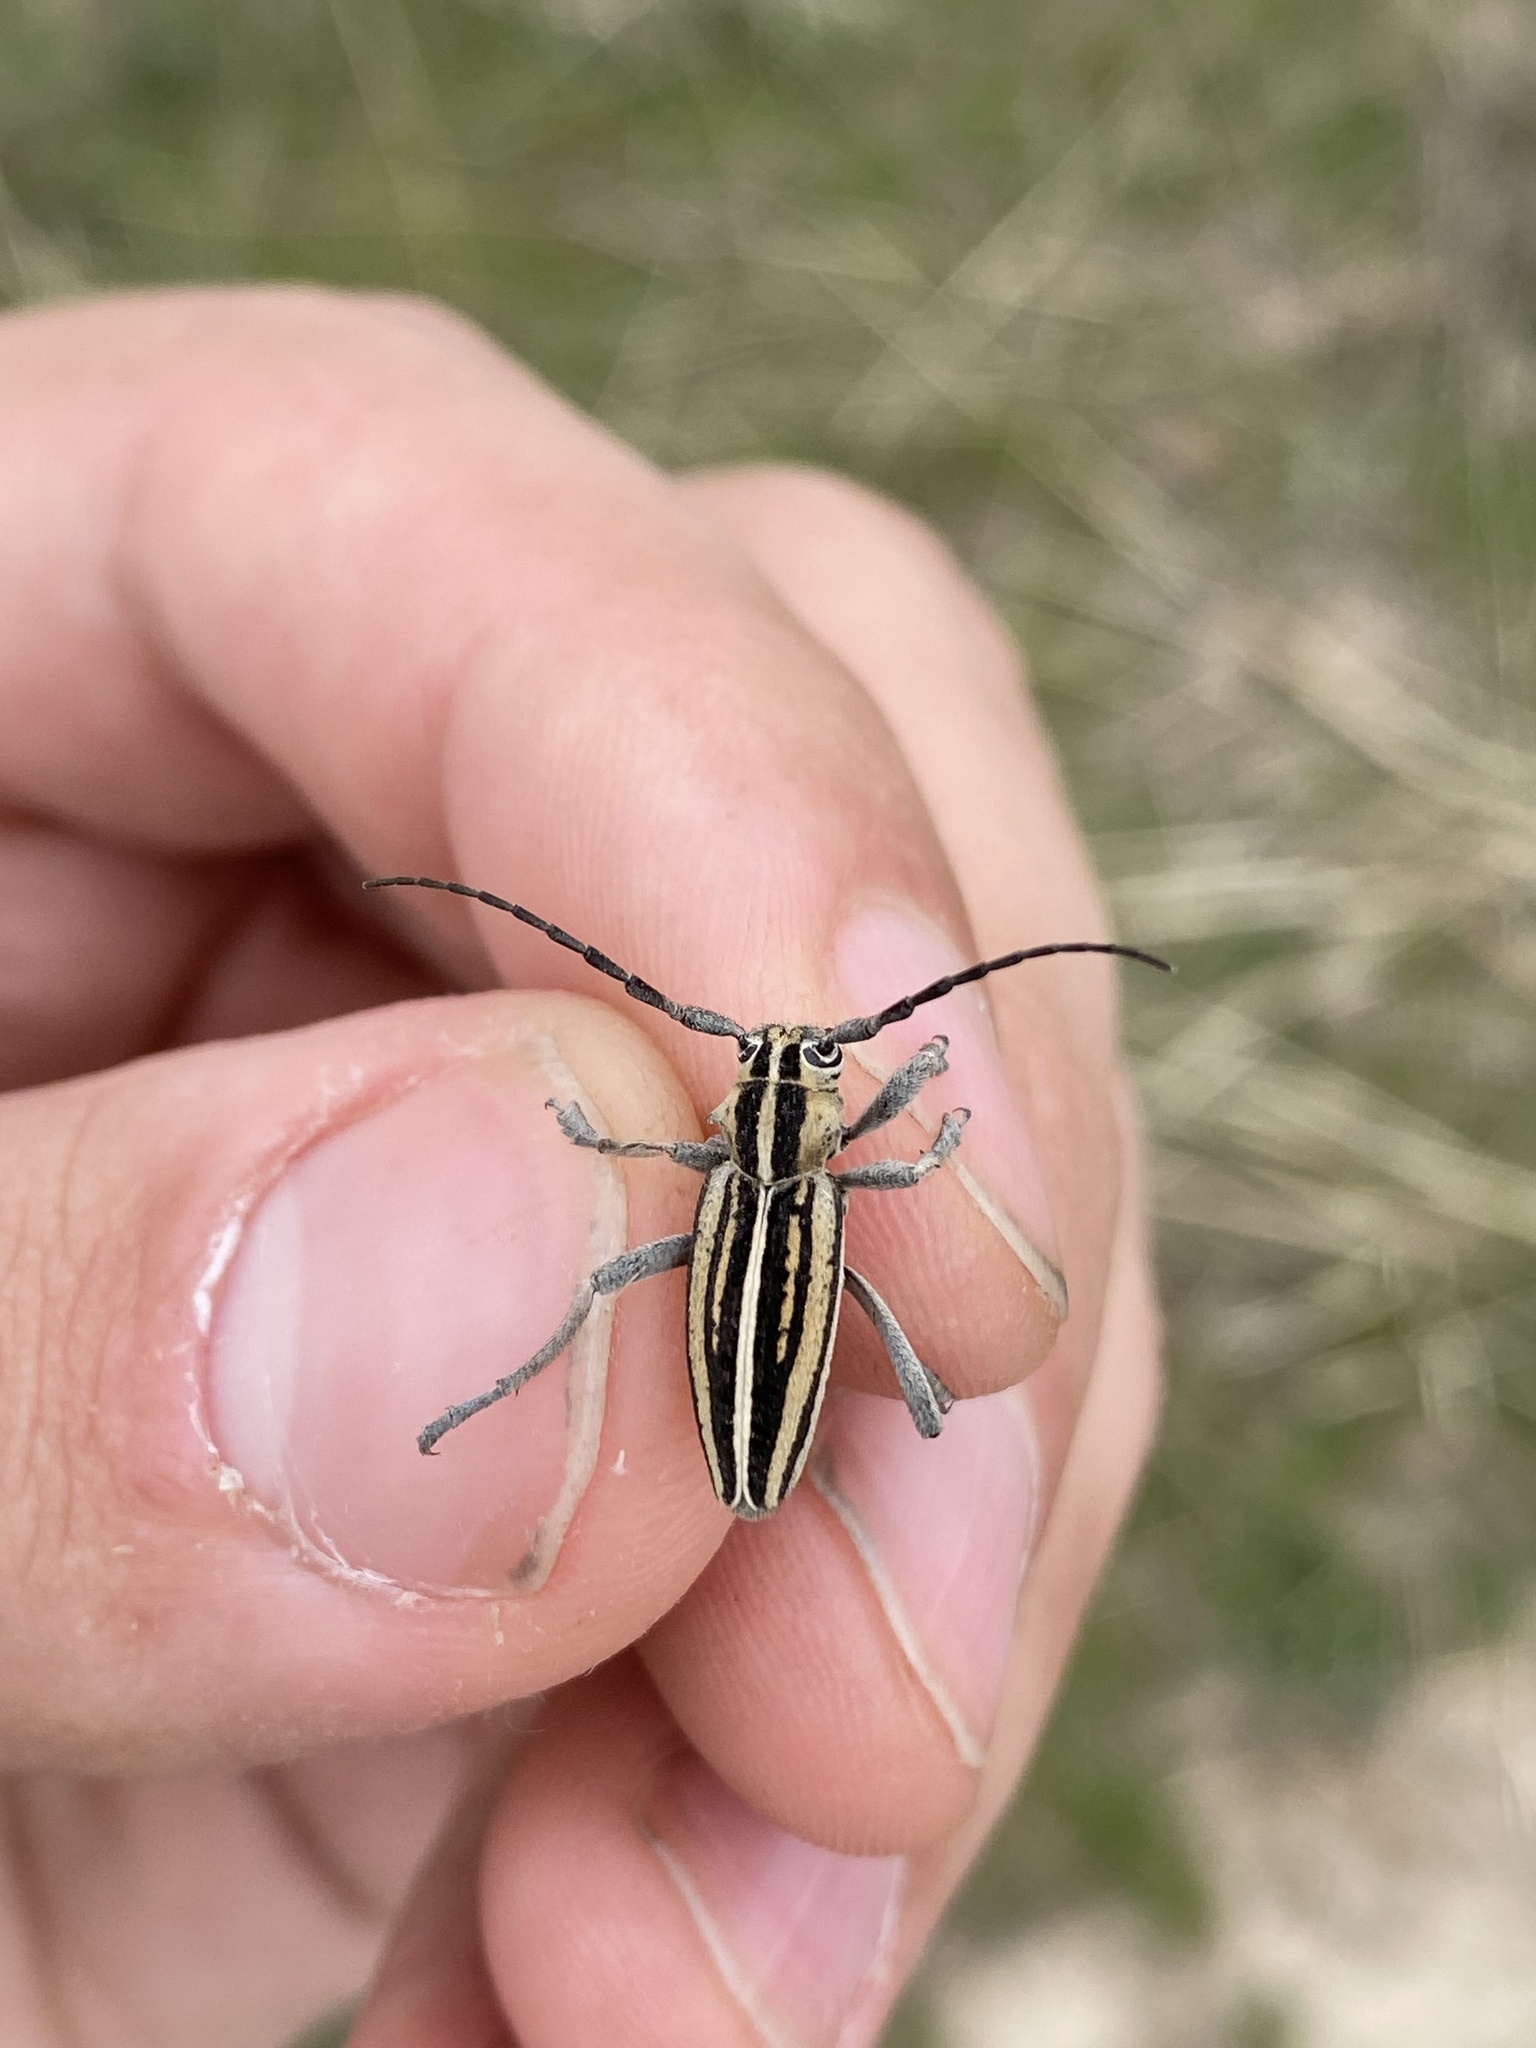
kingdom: Animalia
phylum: Arthropoda
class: Insecta
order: Coleoptera
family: Cerambycidae
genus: Dorcadion
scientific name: Dorcadion tschitscherini
